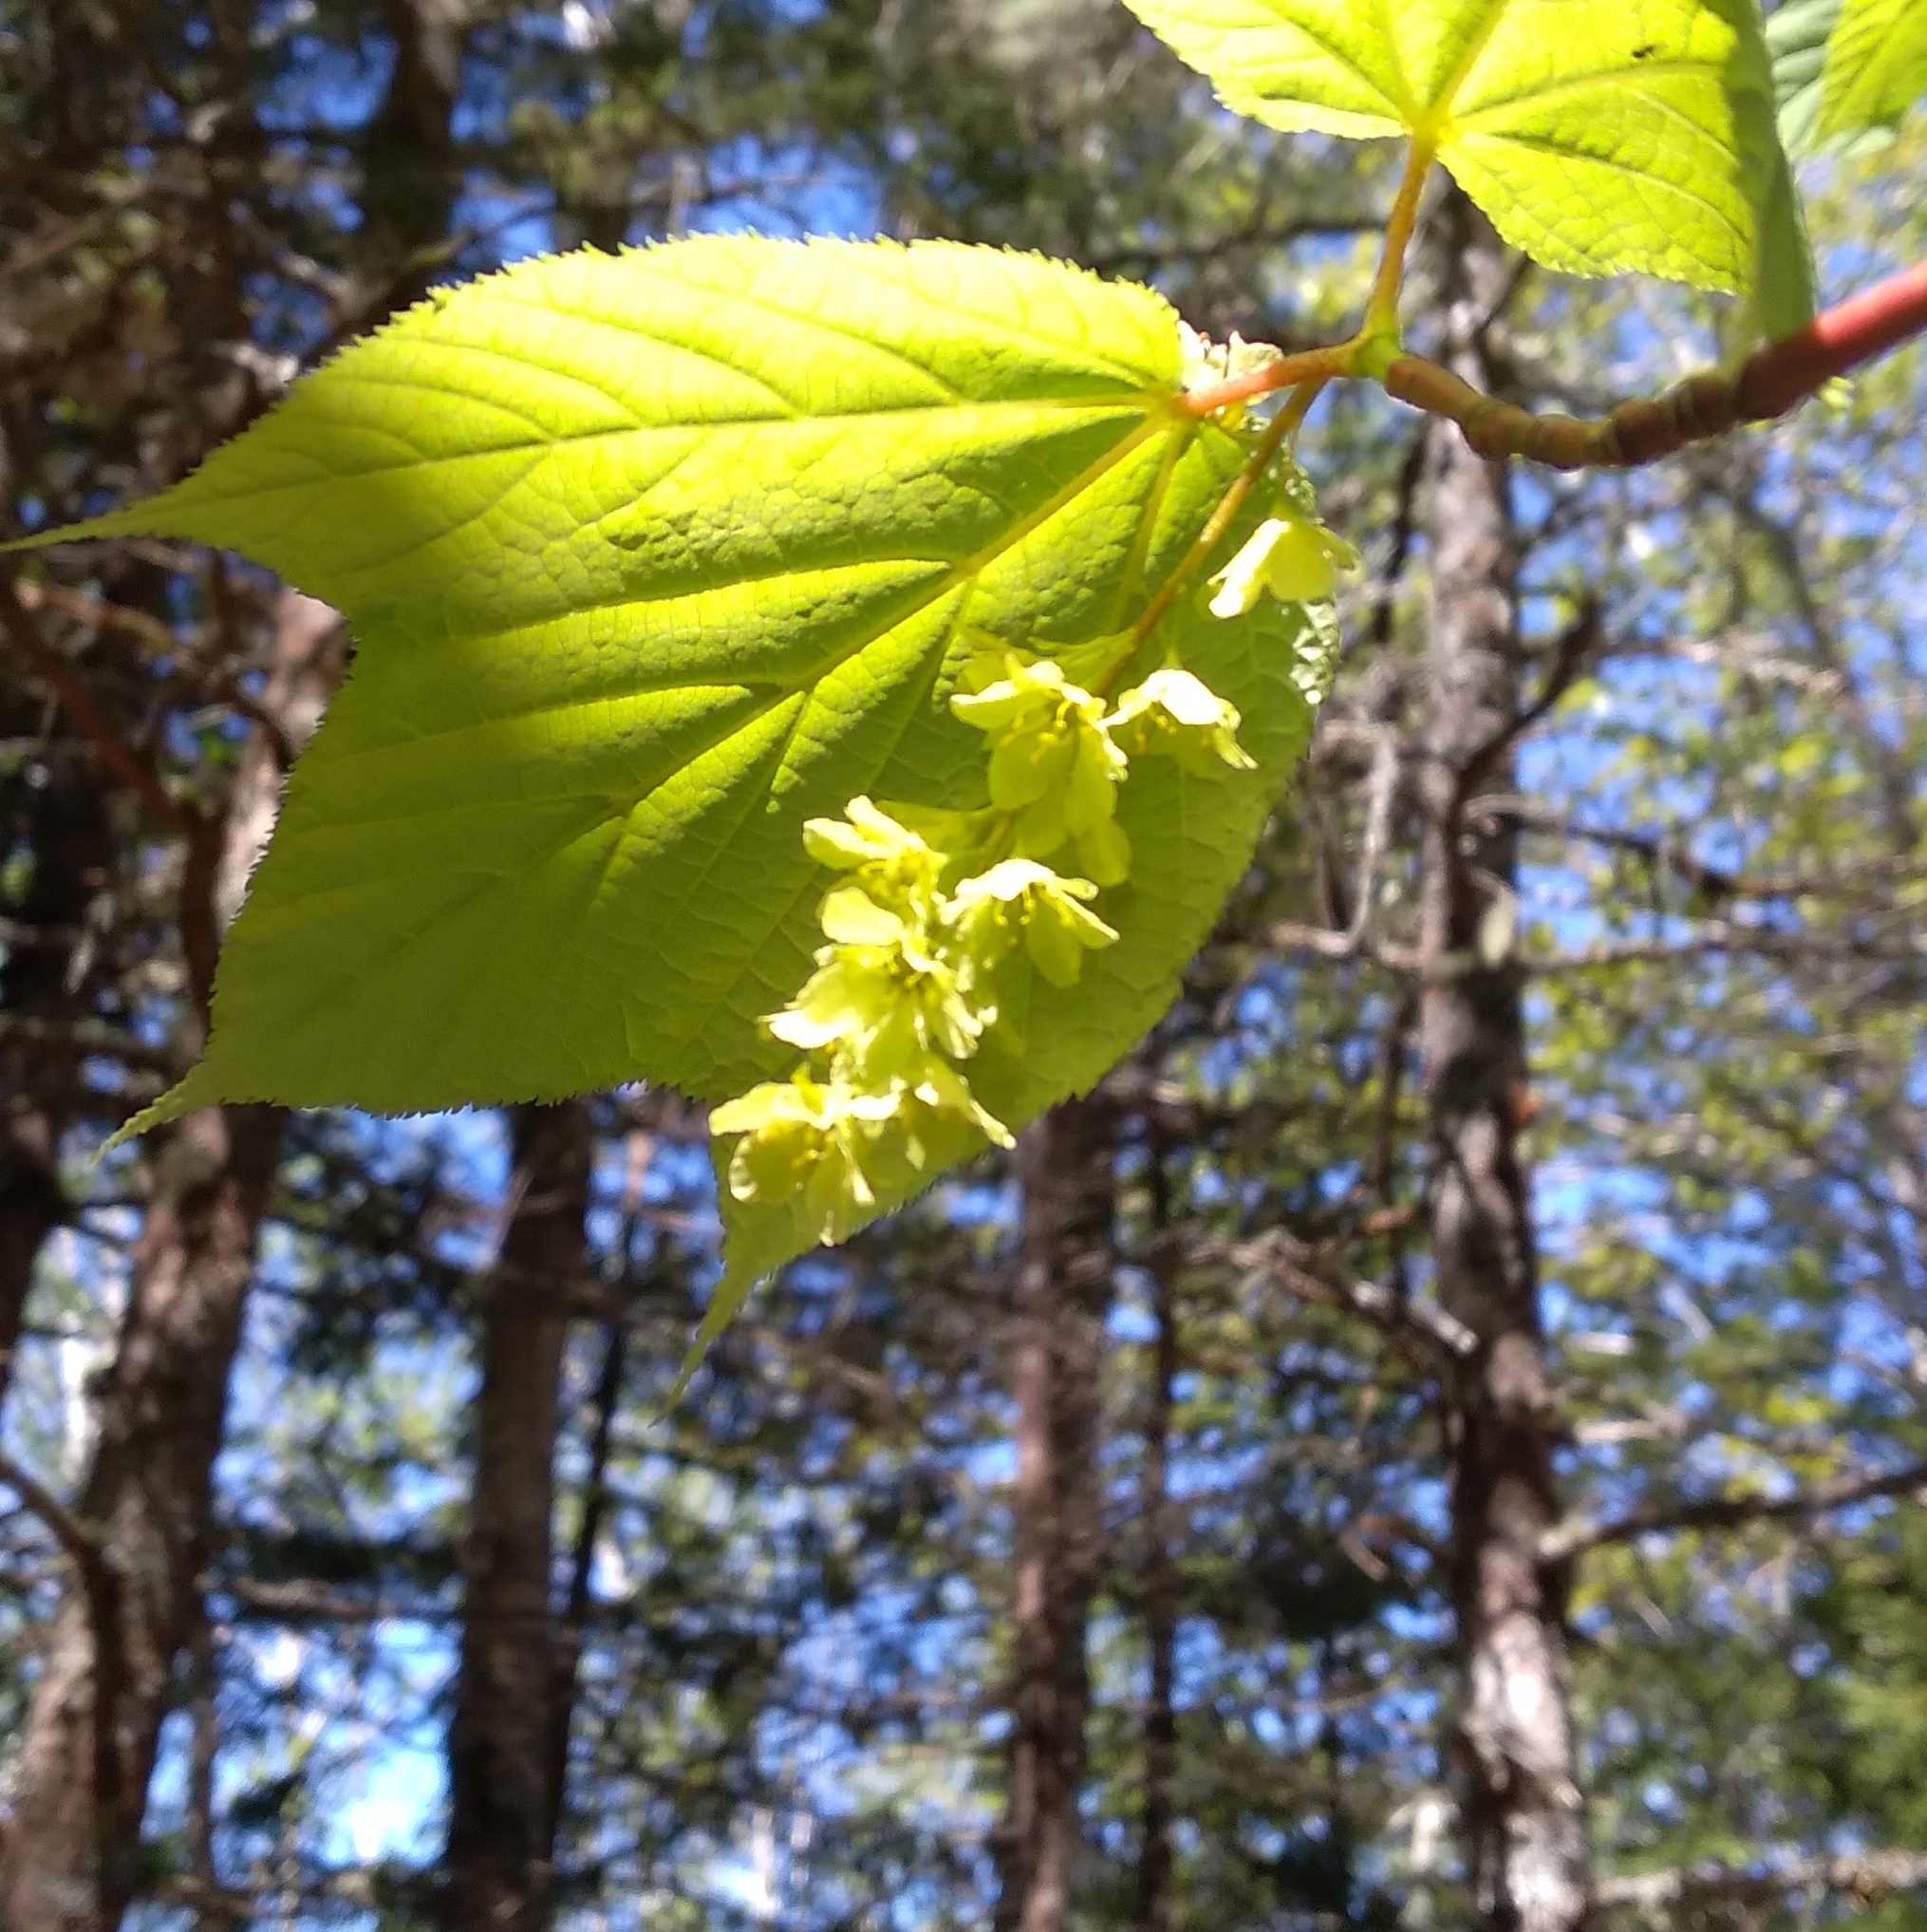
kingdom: Plantae
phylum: Tracheophyta
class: Magnoliopsida
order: Sapindales
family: Sapindaceae
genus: Acer
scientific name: Acer pensylvanicum
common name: Moosewood
